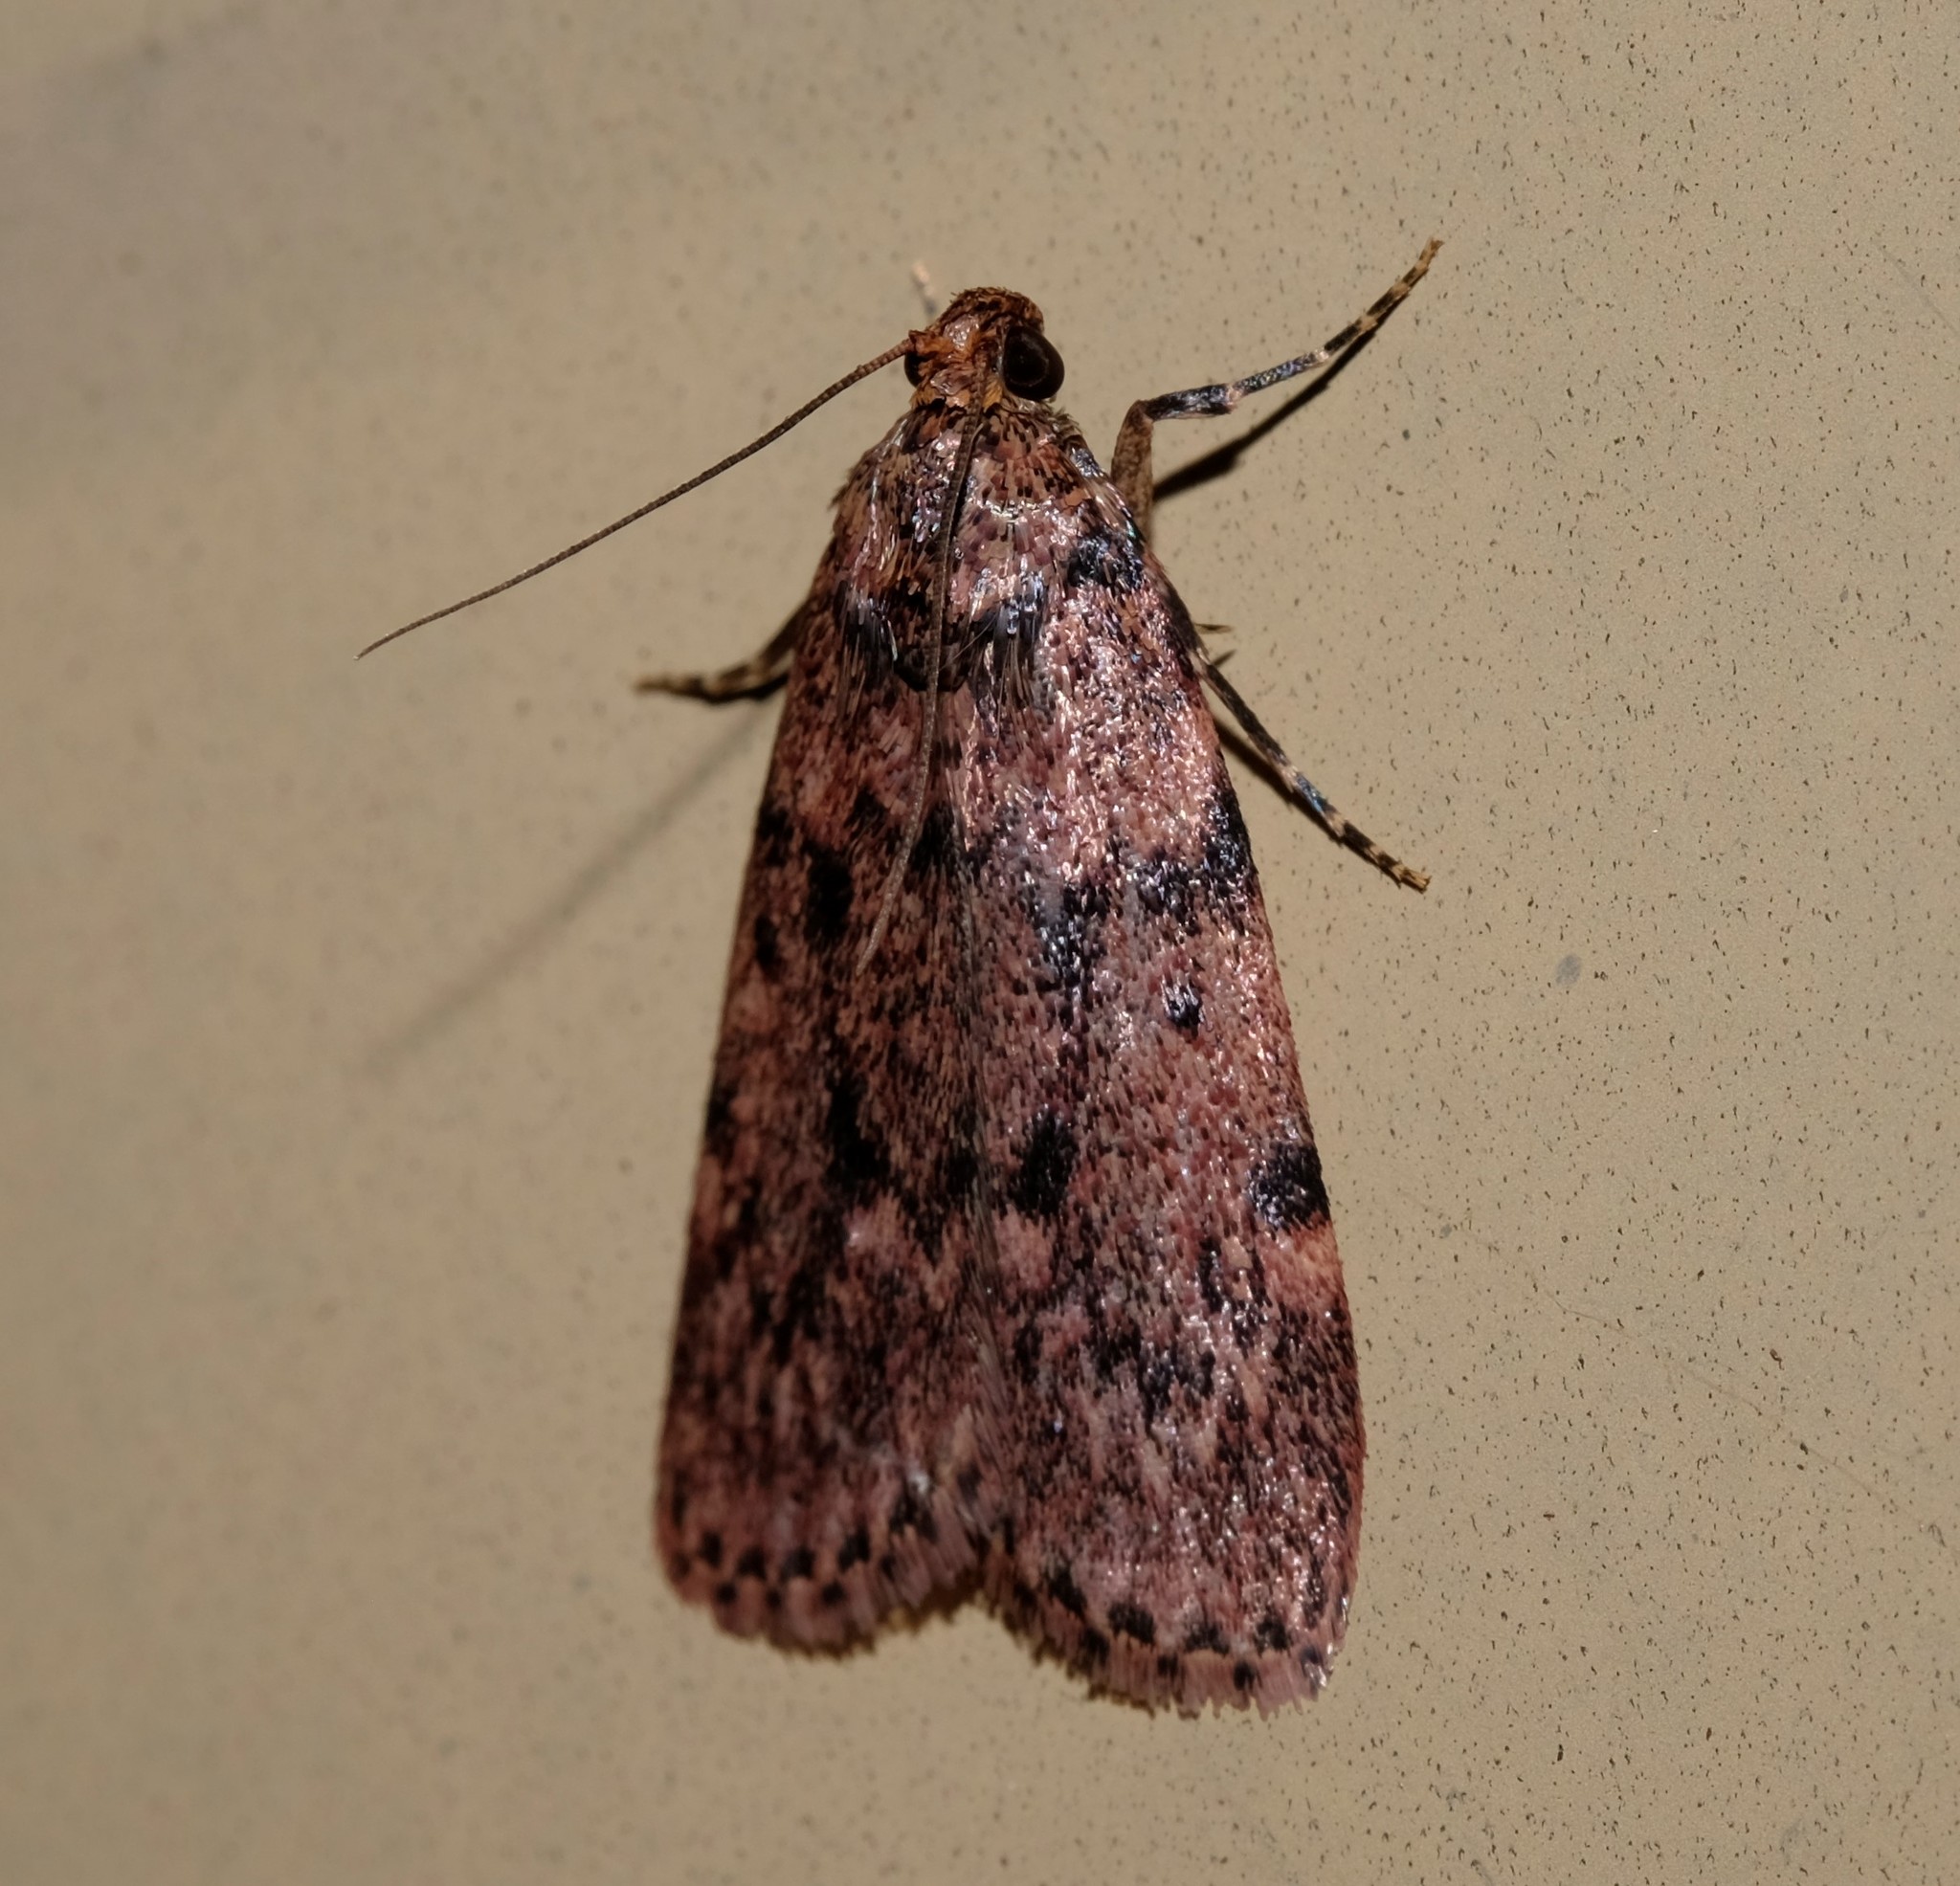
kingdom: Animalia
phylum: Arthropoda
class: Insecta
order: Lepidoptera
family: Pyralidae
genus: Mimaglossa
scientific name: Mimaglossa nauplialis
